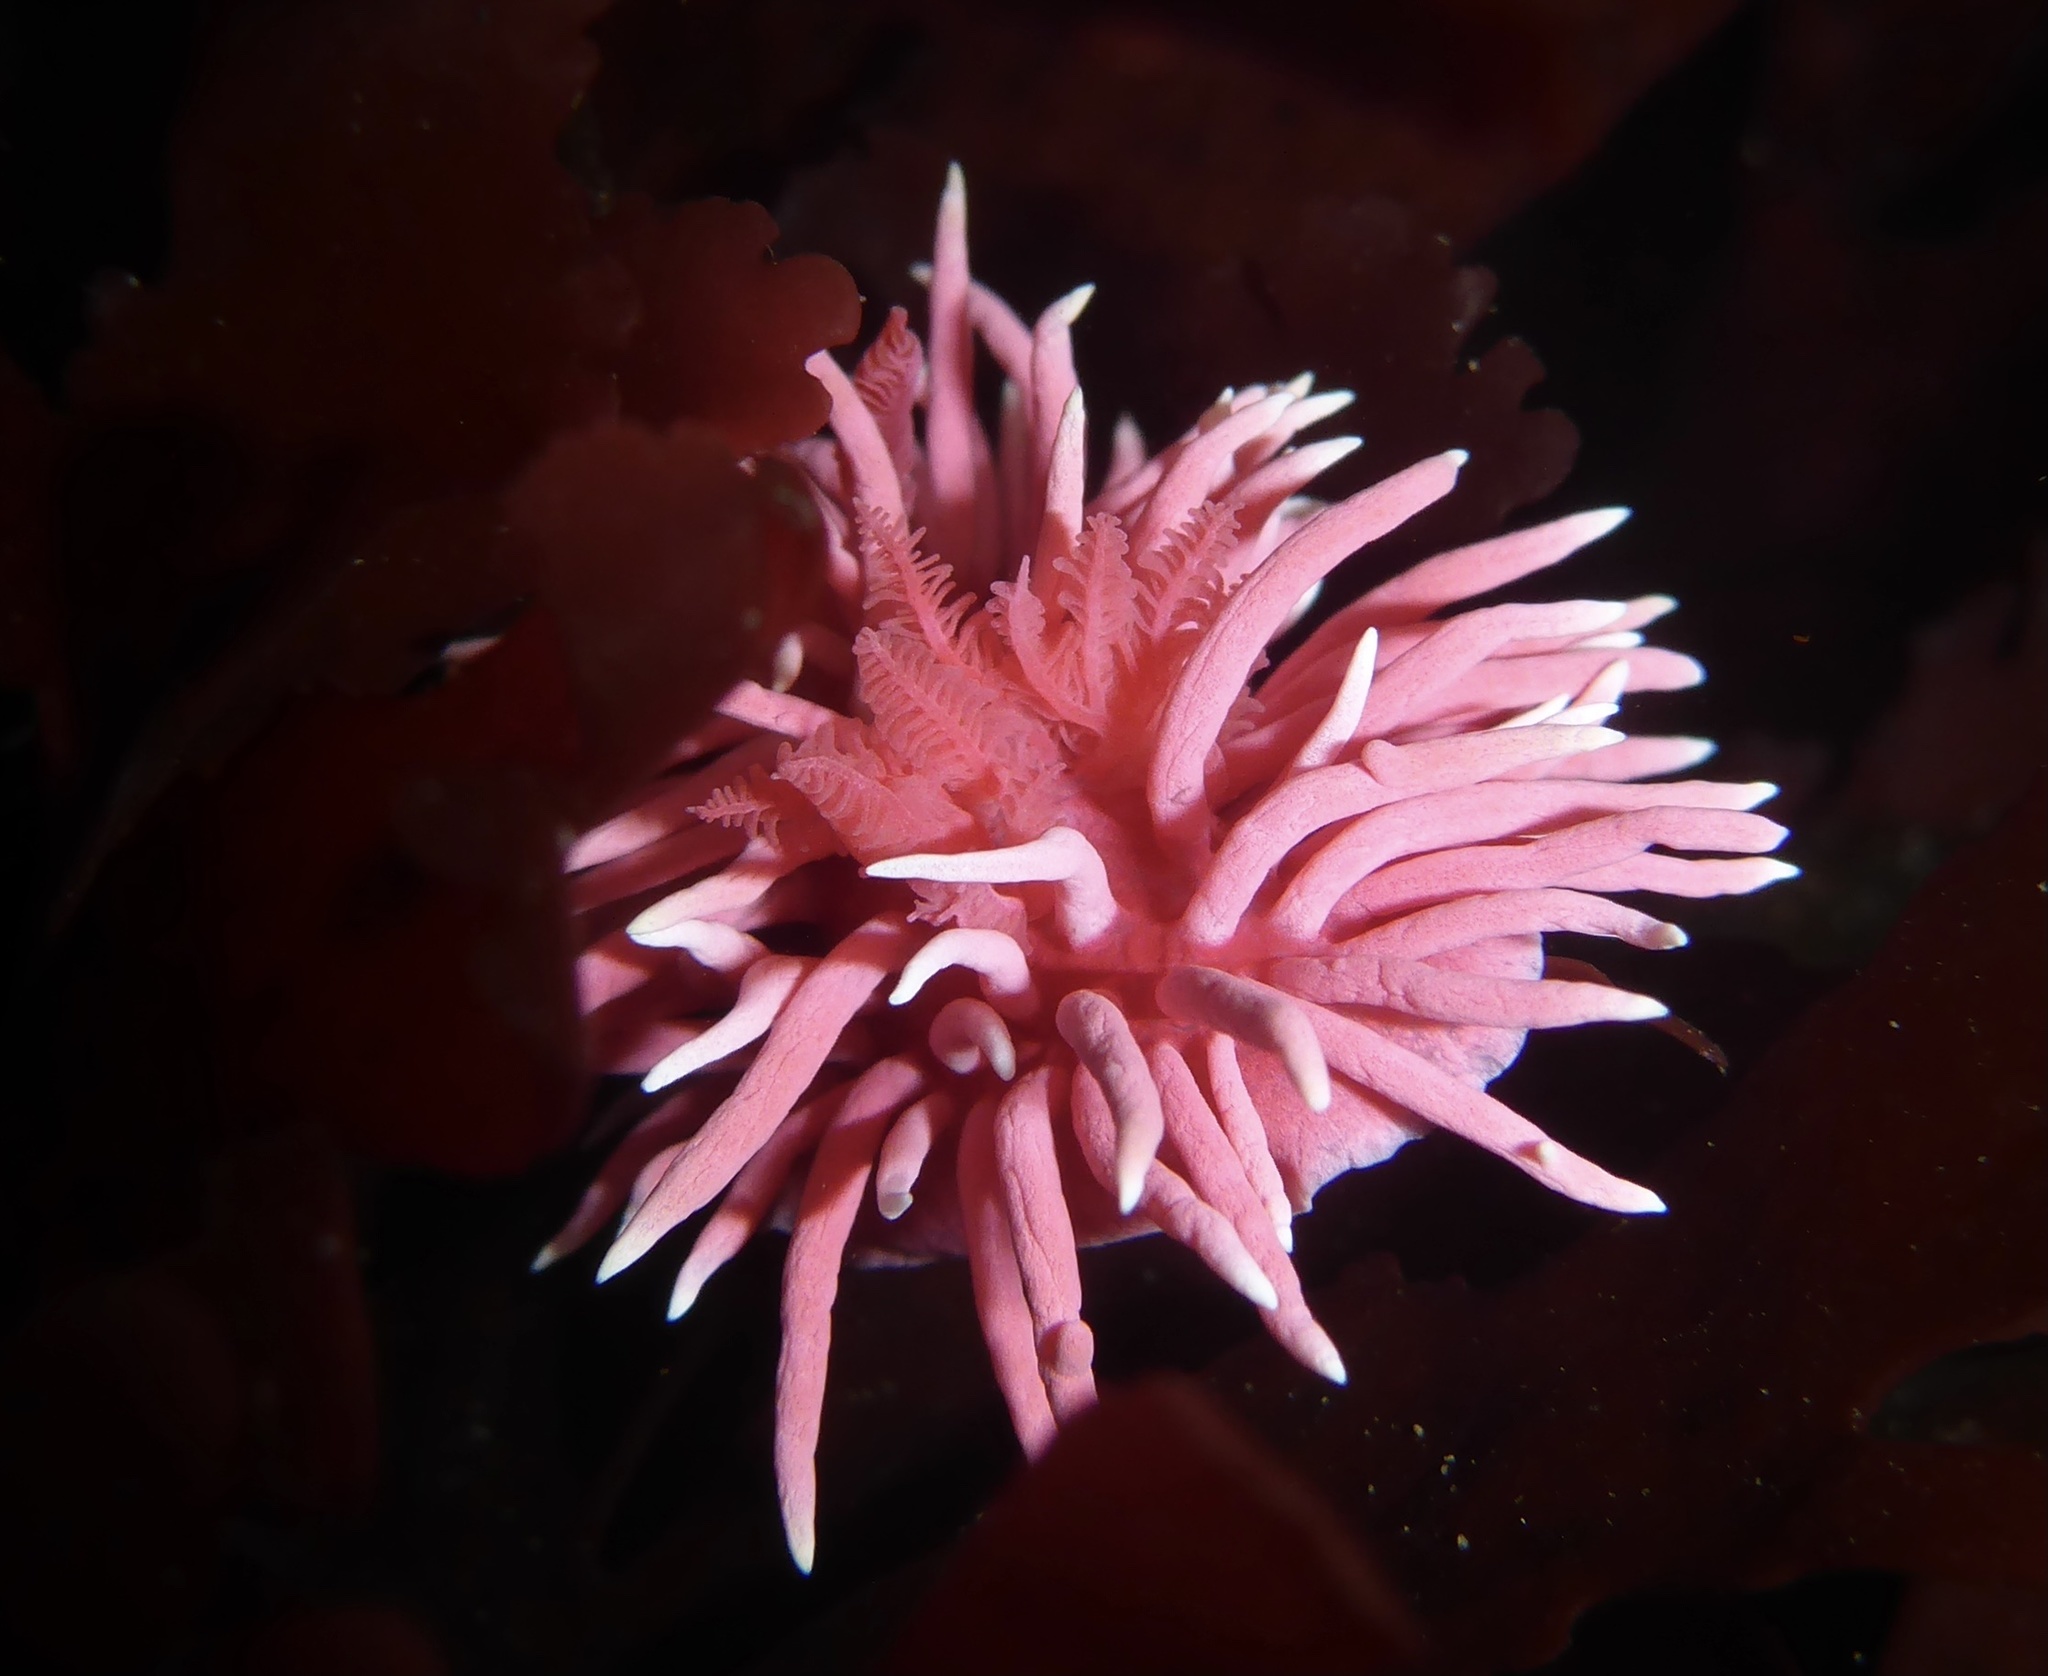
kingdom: Animalia
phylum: Mollusca
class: Gastropoda
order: Nudibranchia
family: Goniodorididae
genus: Okenia
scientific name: Okenia
